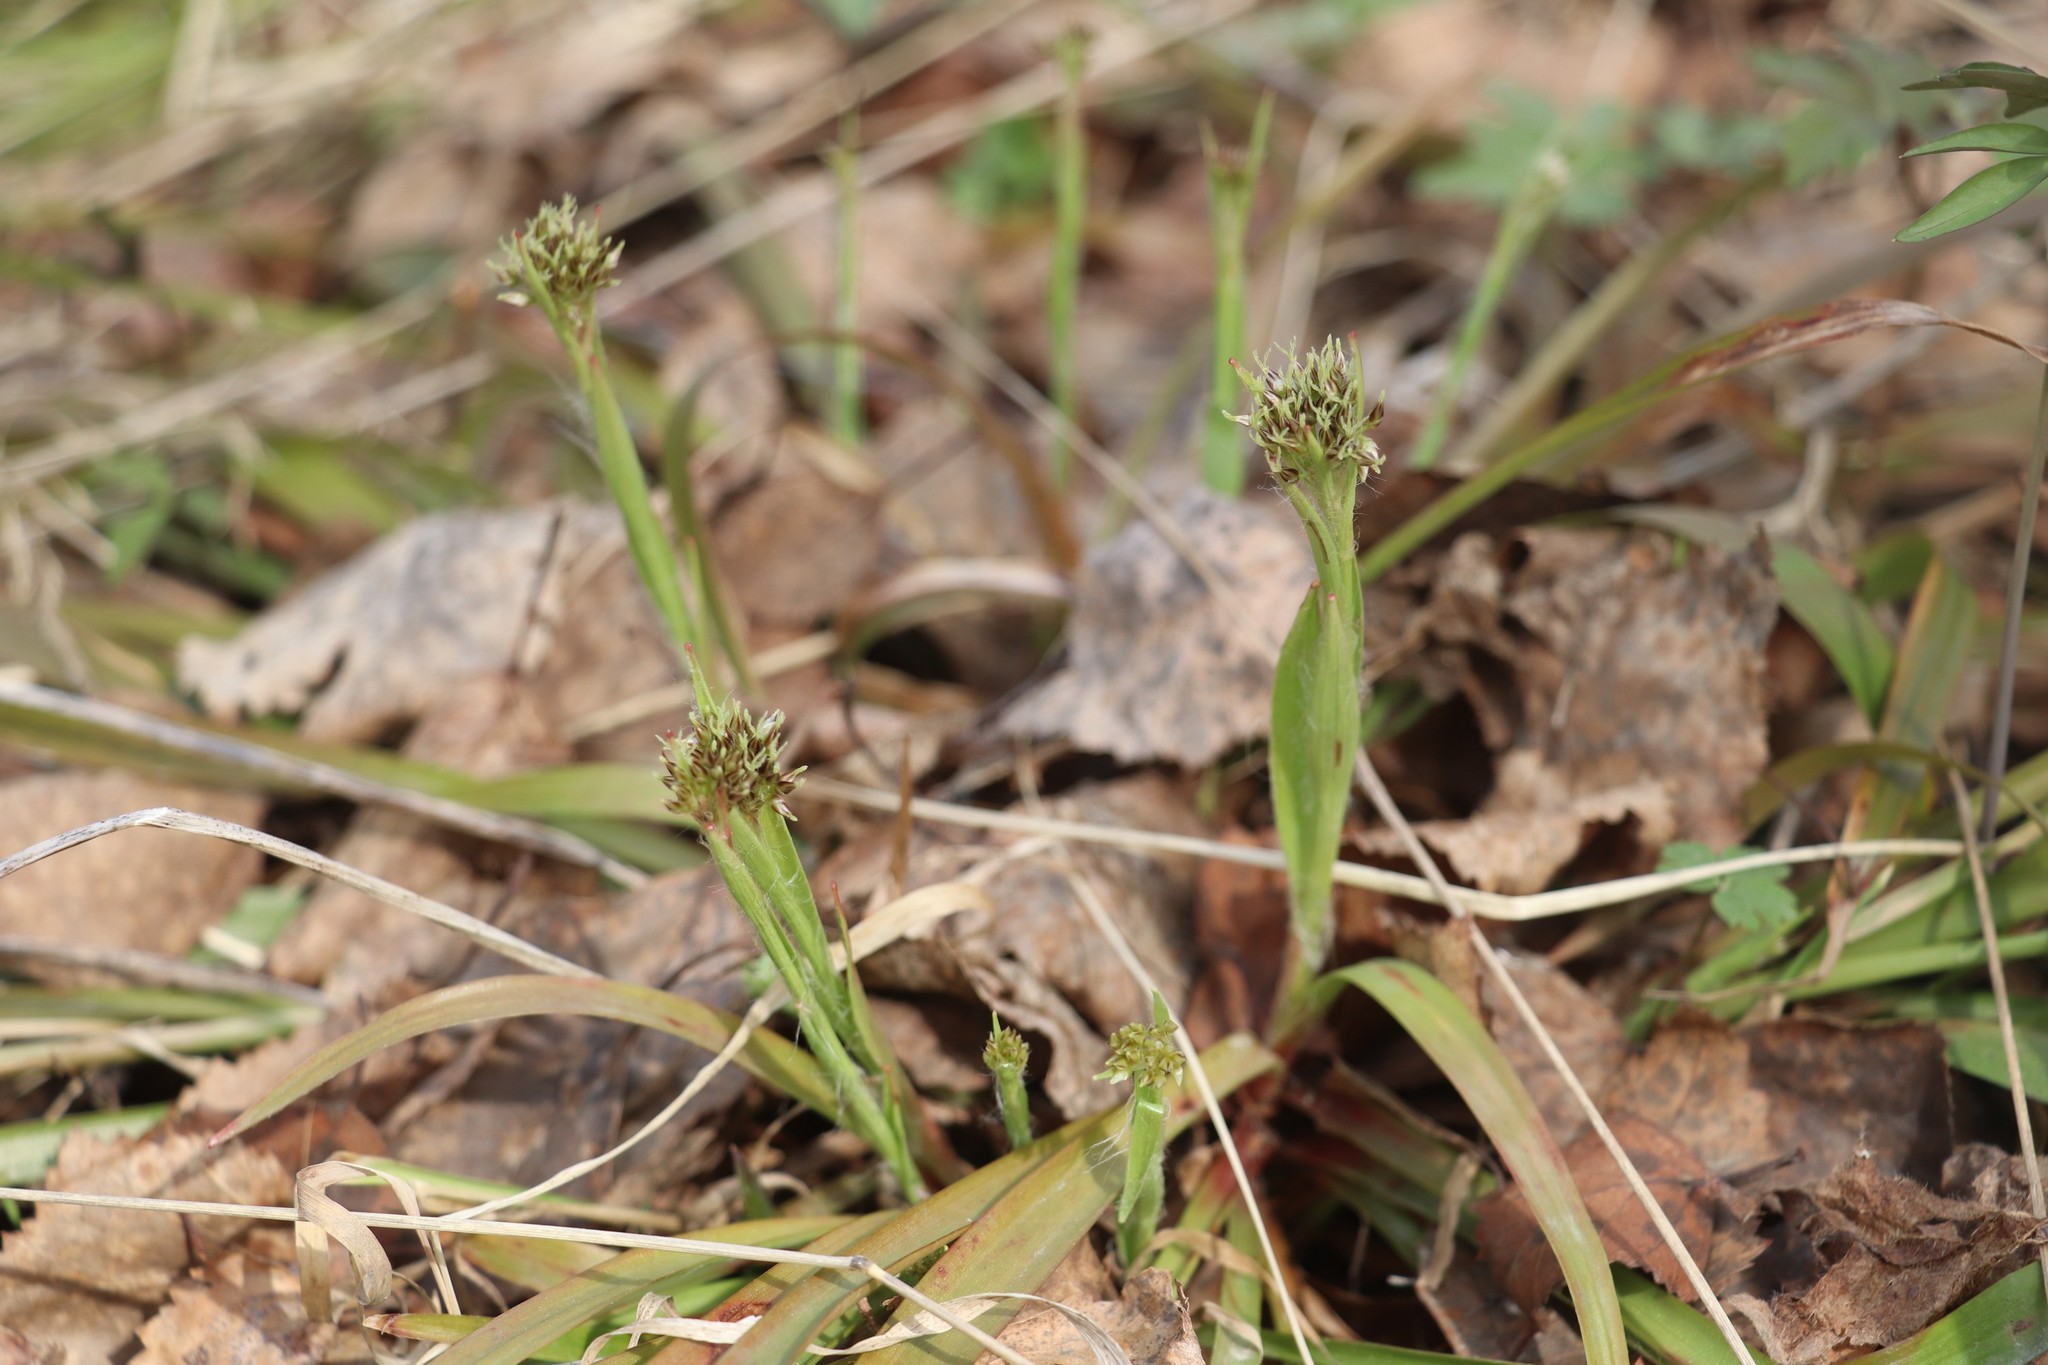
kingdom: Plantae
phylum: Tracheophyta
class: Liliopsida
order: Poales
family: Juncaceae
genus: Luzula
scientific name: Luzula pilosa
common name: Hairy wood-rush
